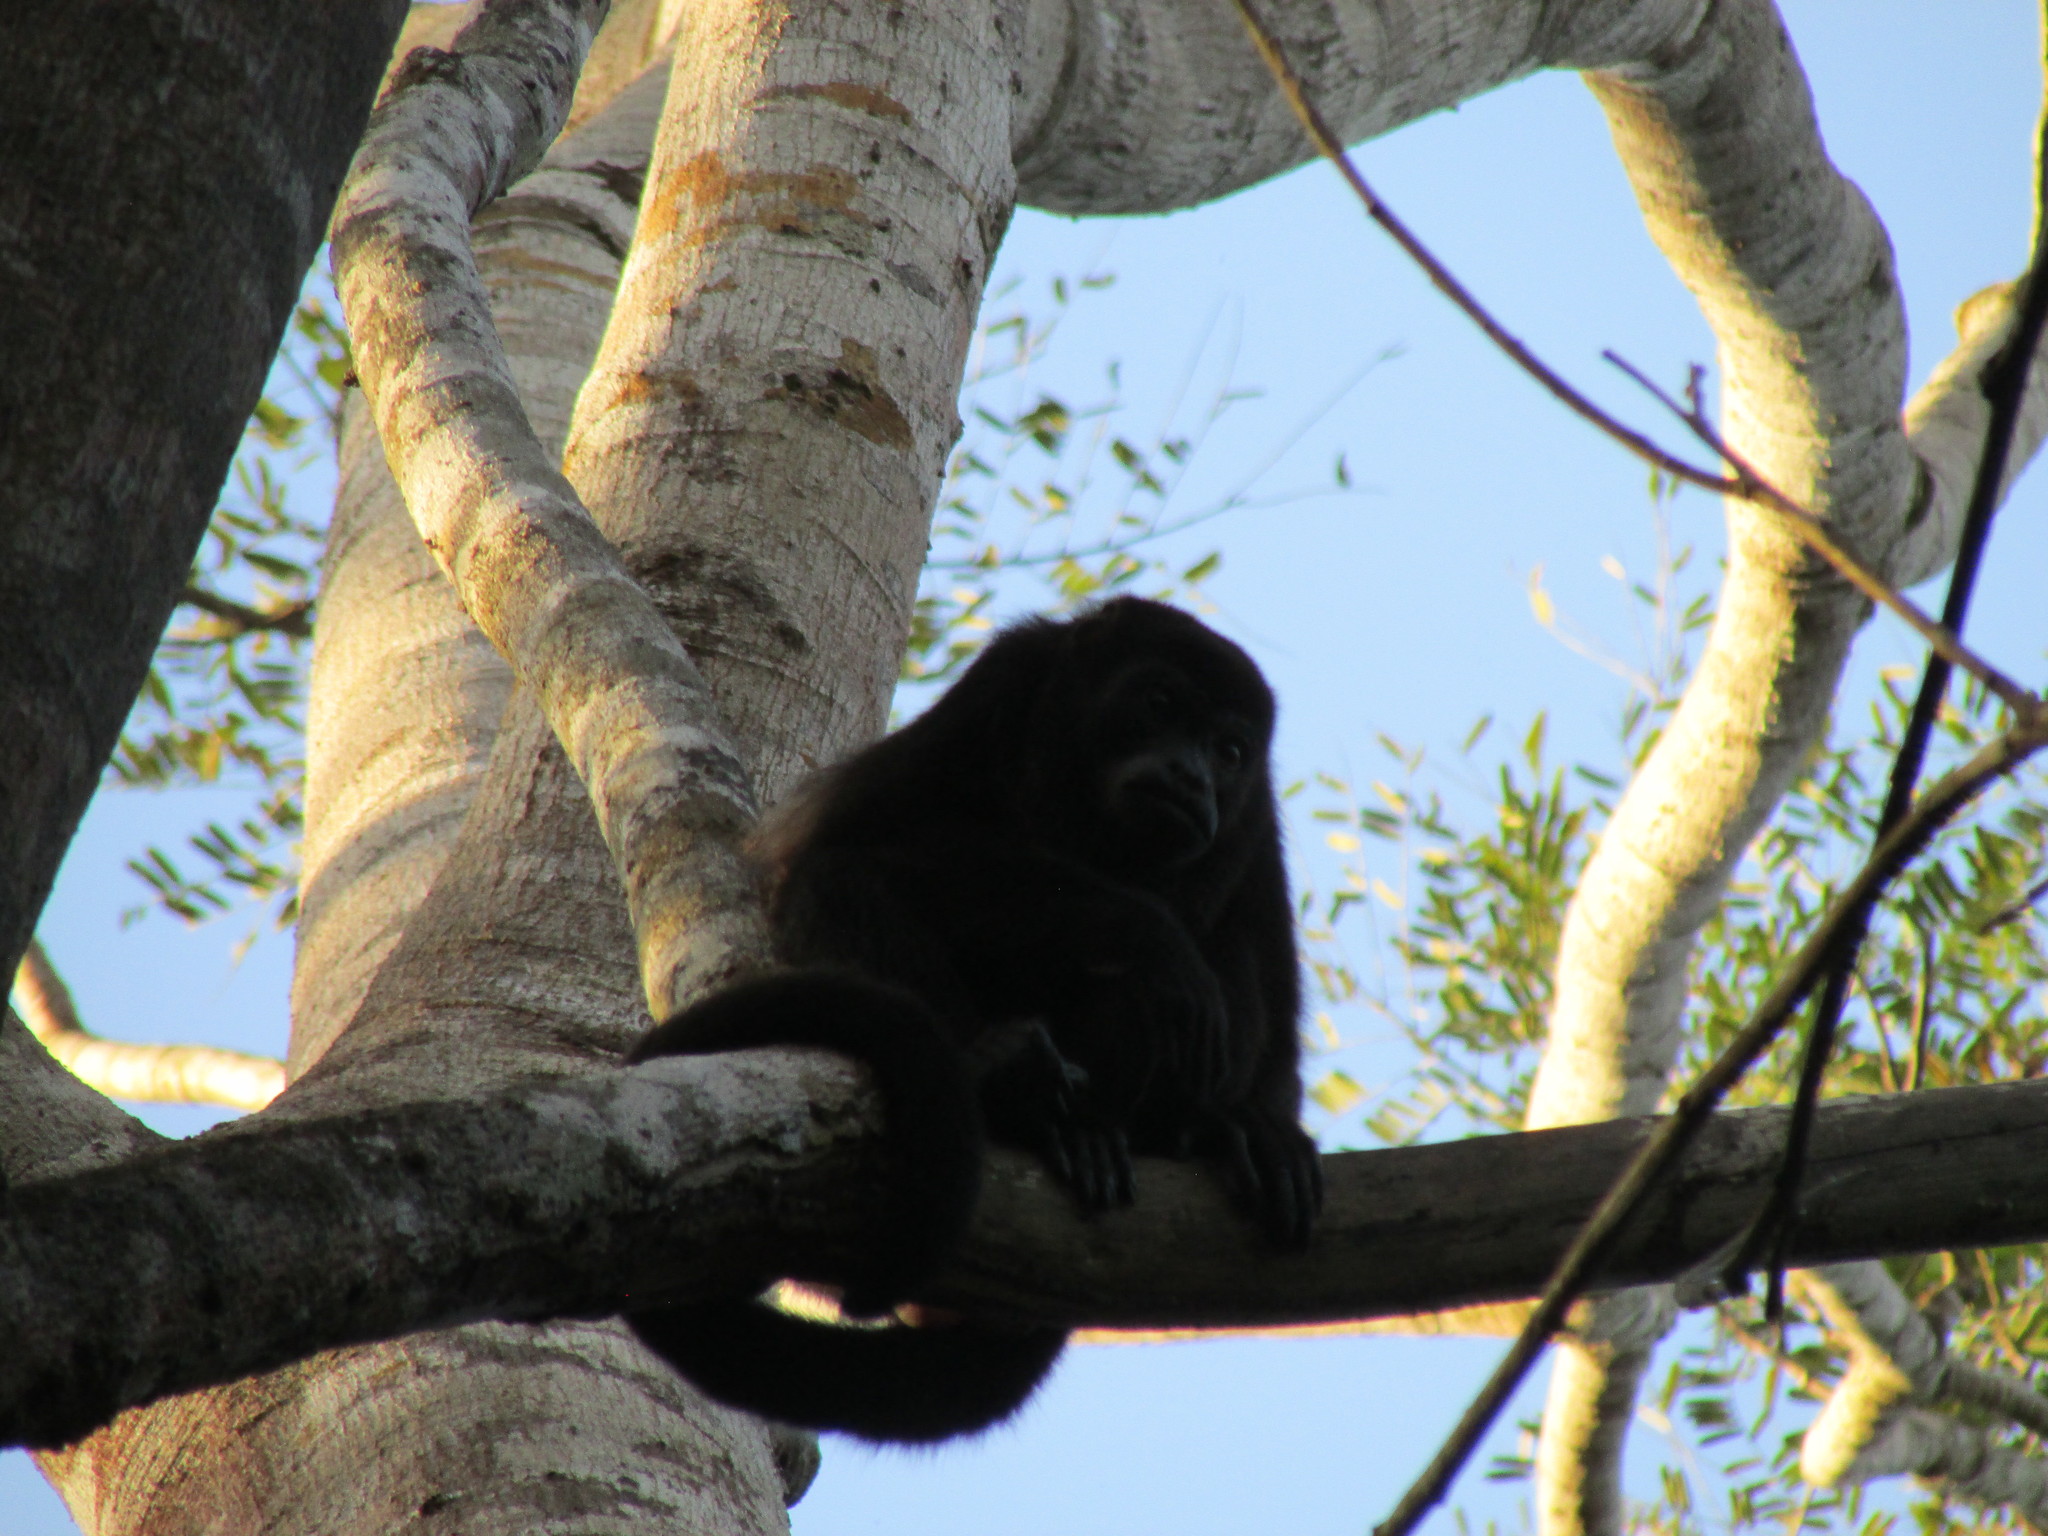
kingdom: Animalia
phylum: Chordata
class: Mammalia
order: Primates
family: Atelidae
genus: Alouatta
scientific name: Alouatta palliata
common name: Mantled howler
